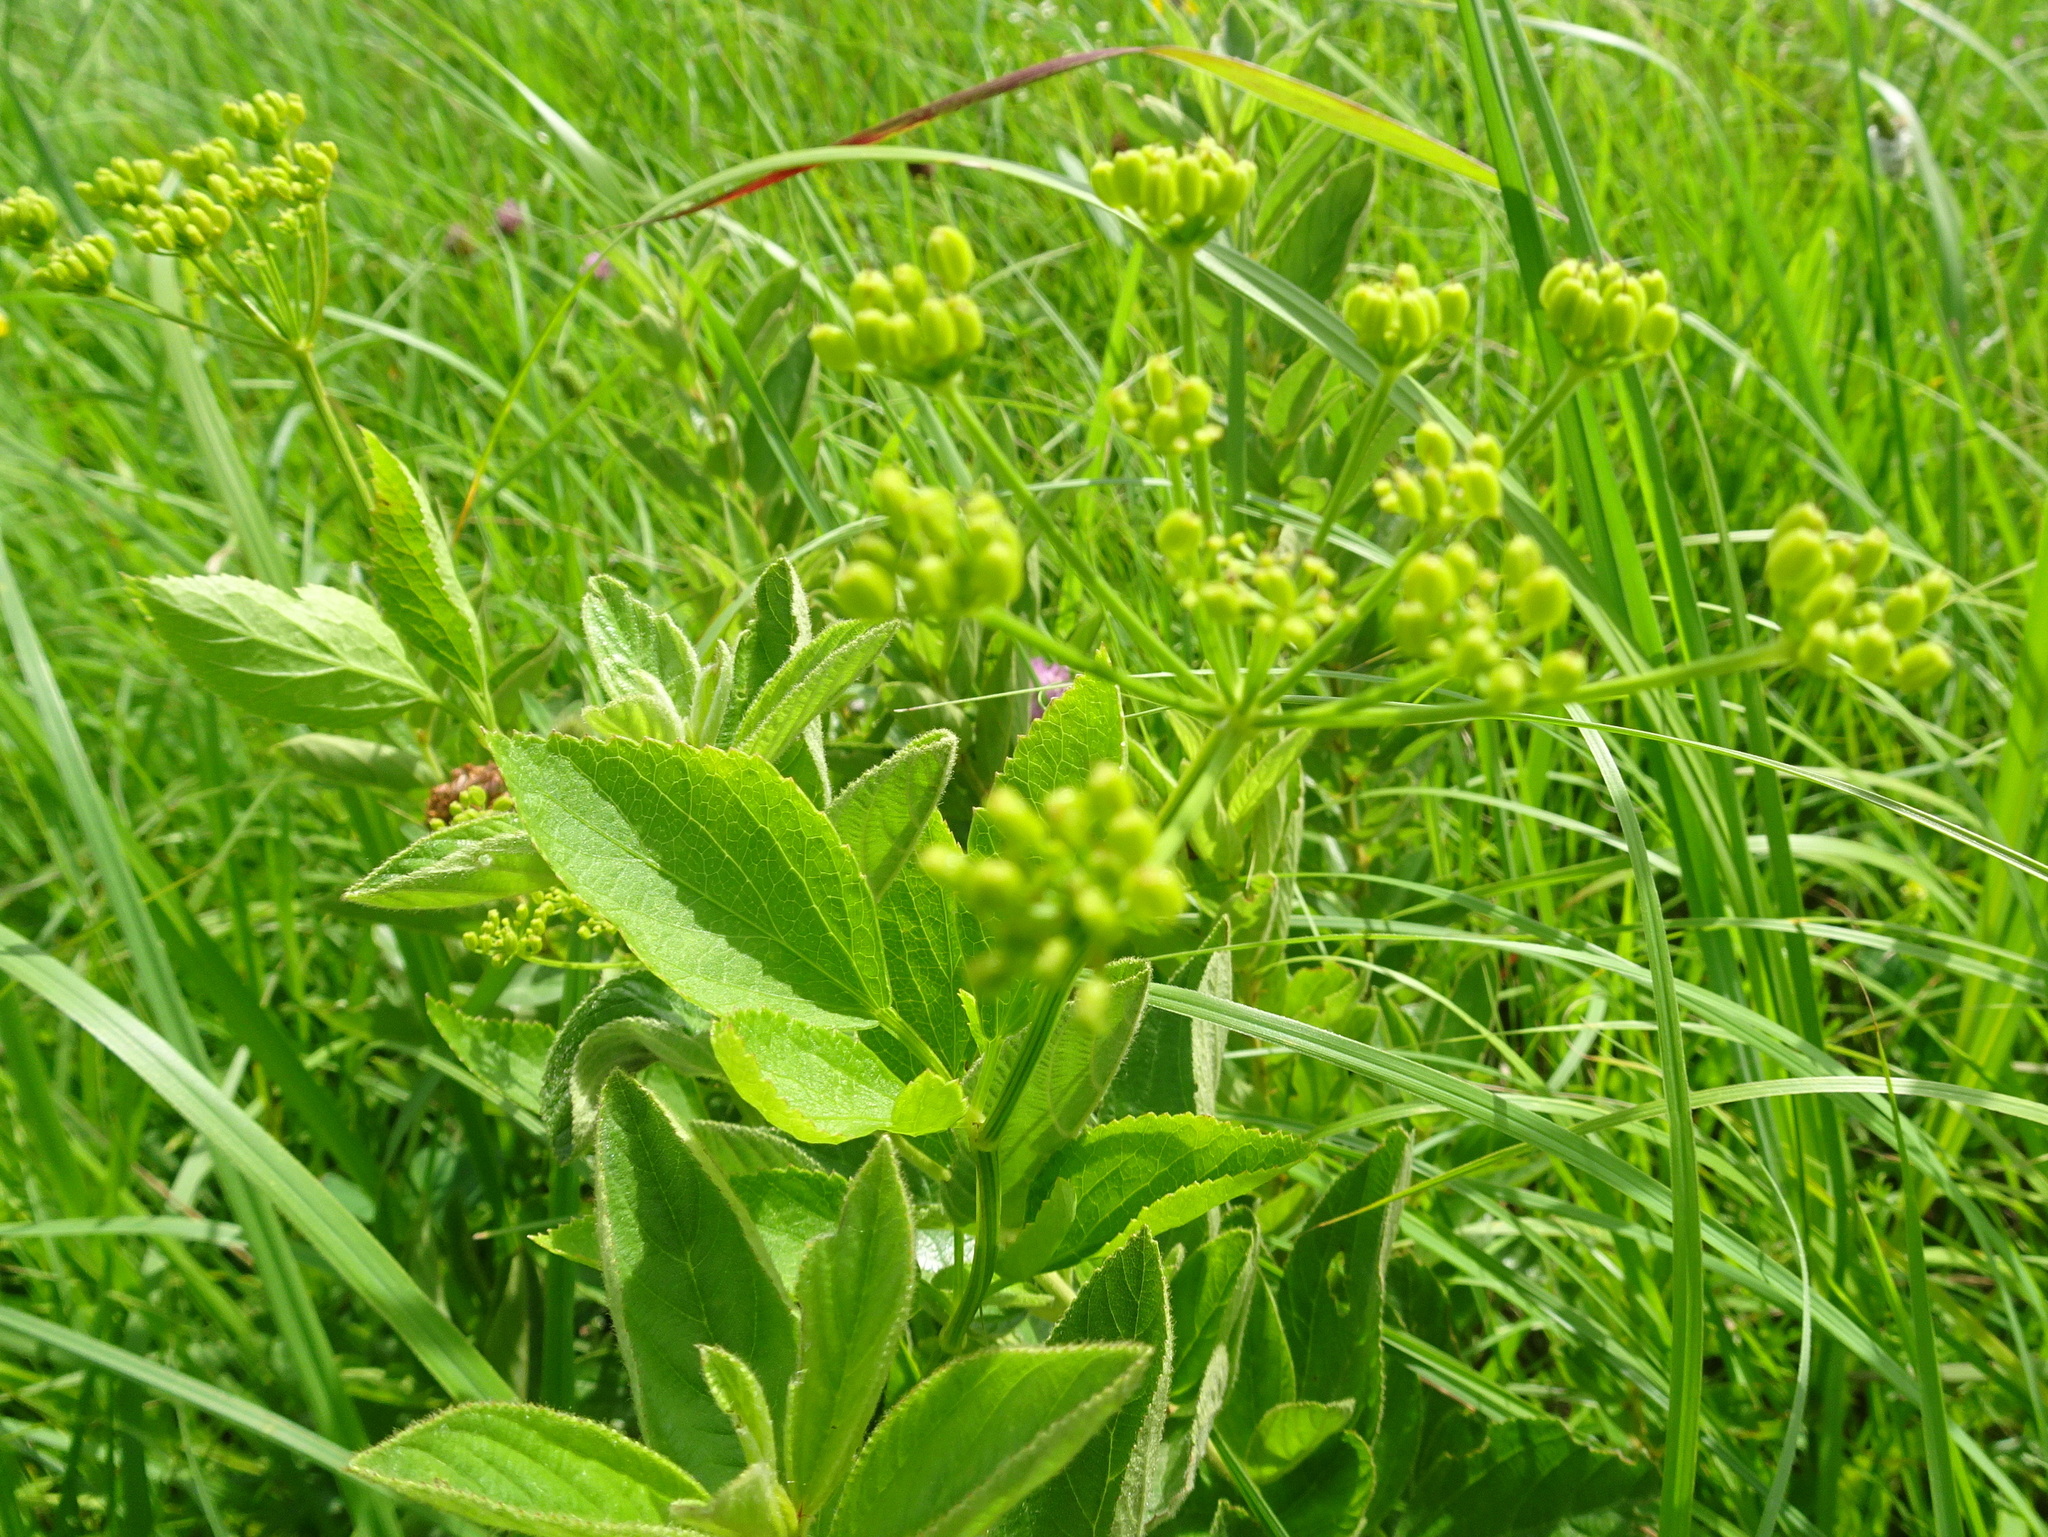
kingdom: Plantae
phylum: Tracheophyta
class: Magnoliopsida
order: Apiales
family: Apiaceae
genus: Zizia
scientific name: Zizia aurea
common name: Golden alexanders
